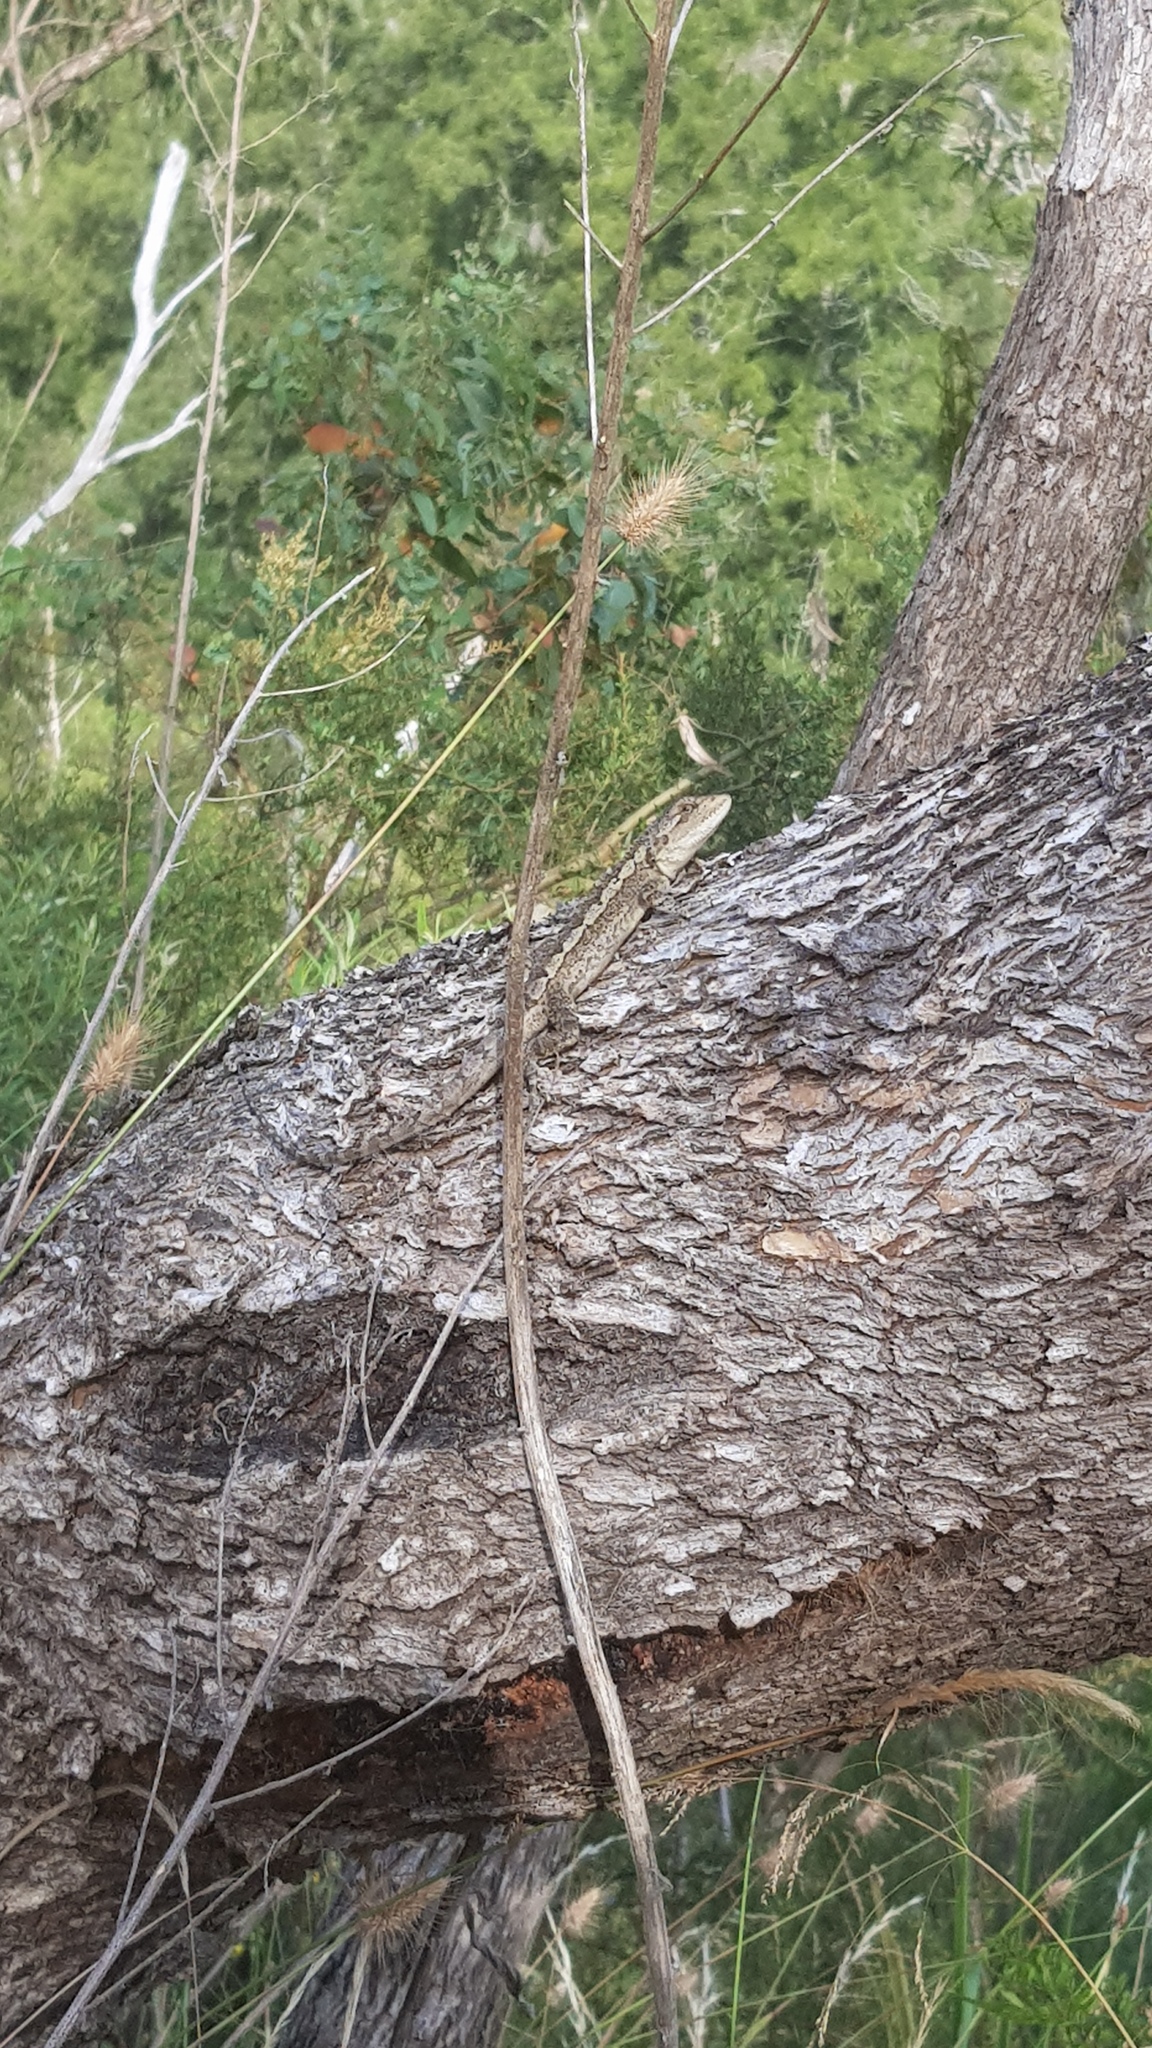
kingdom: Animalia
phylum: Chordata
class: Squamata
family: Agamidae
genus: Amphibolurus
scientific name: Amphibolurus muricatus
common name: Jacky lizard
